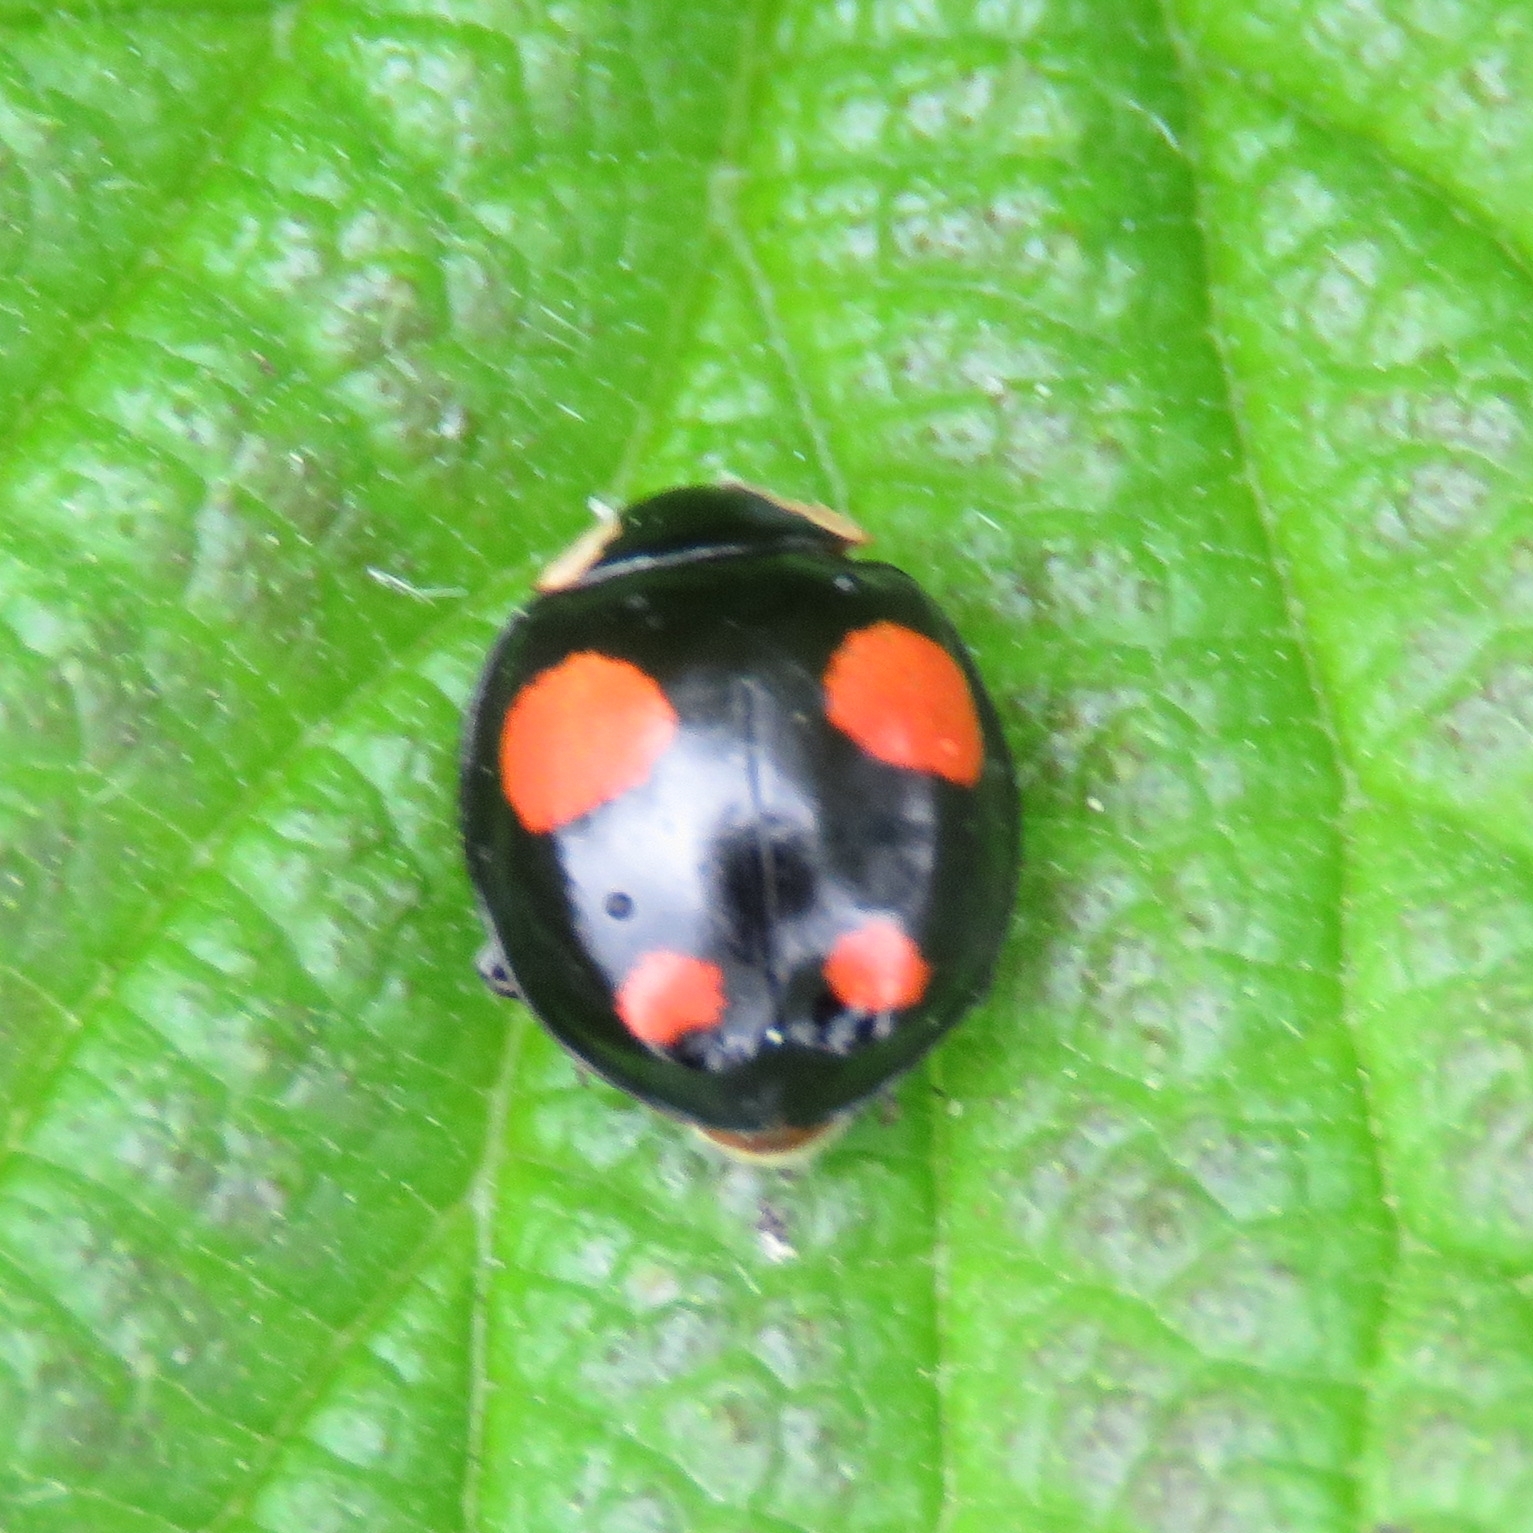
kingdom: Animalia
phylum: Arthropoda
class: Insecta
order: Coleoptera
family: Coccinellidae
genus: Harmonia
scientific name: Harmonia axyridis
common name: Harlequin ladybird
